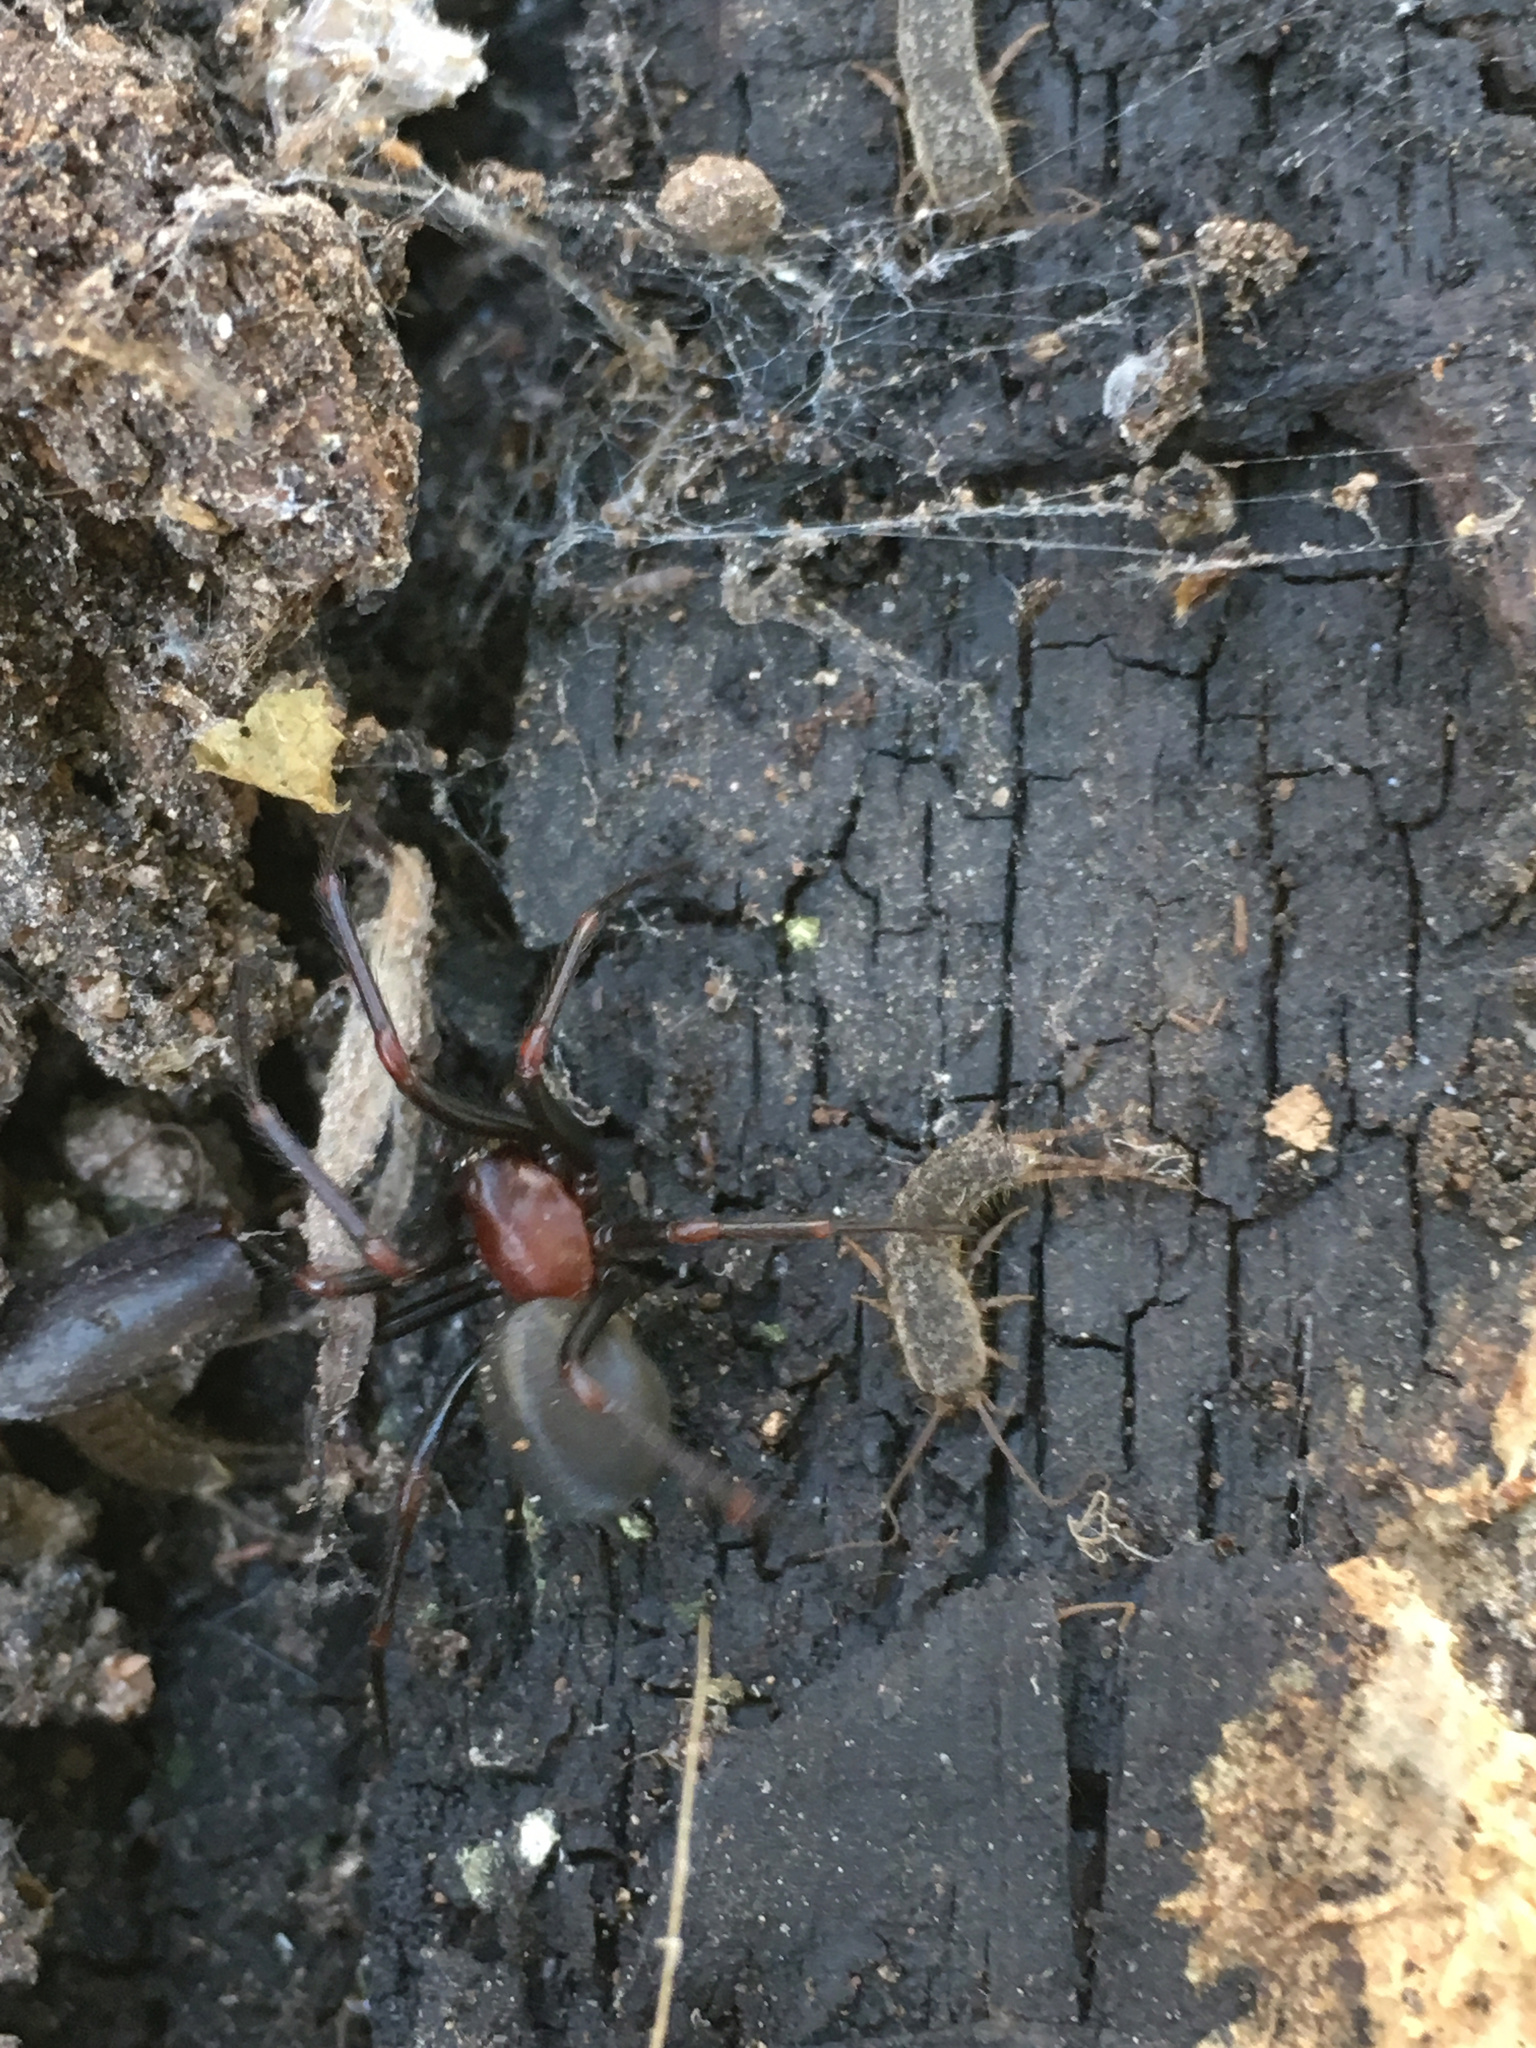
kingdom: Animalia
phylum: Arthropoda
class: Arachnida
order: Araneae
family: Plectreuridae
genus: Kibramoa
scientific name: Kibramoa madrona
